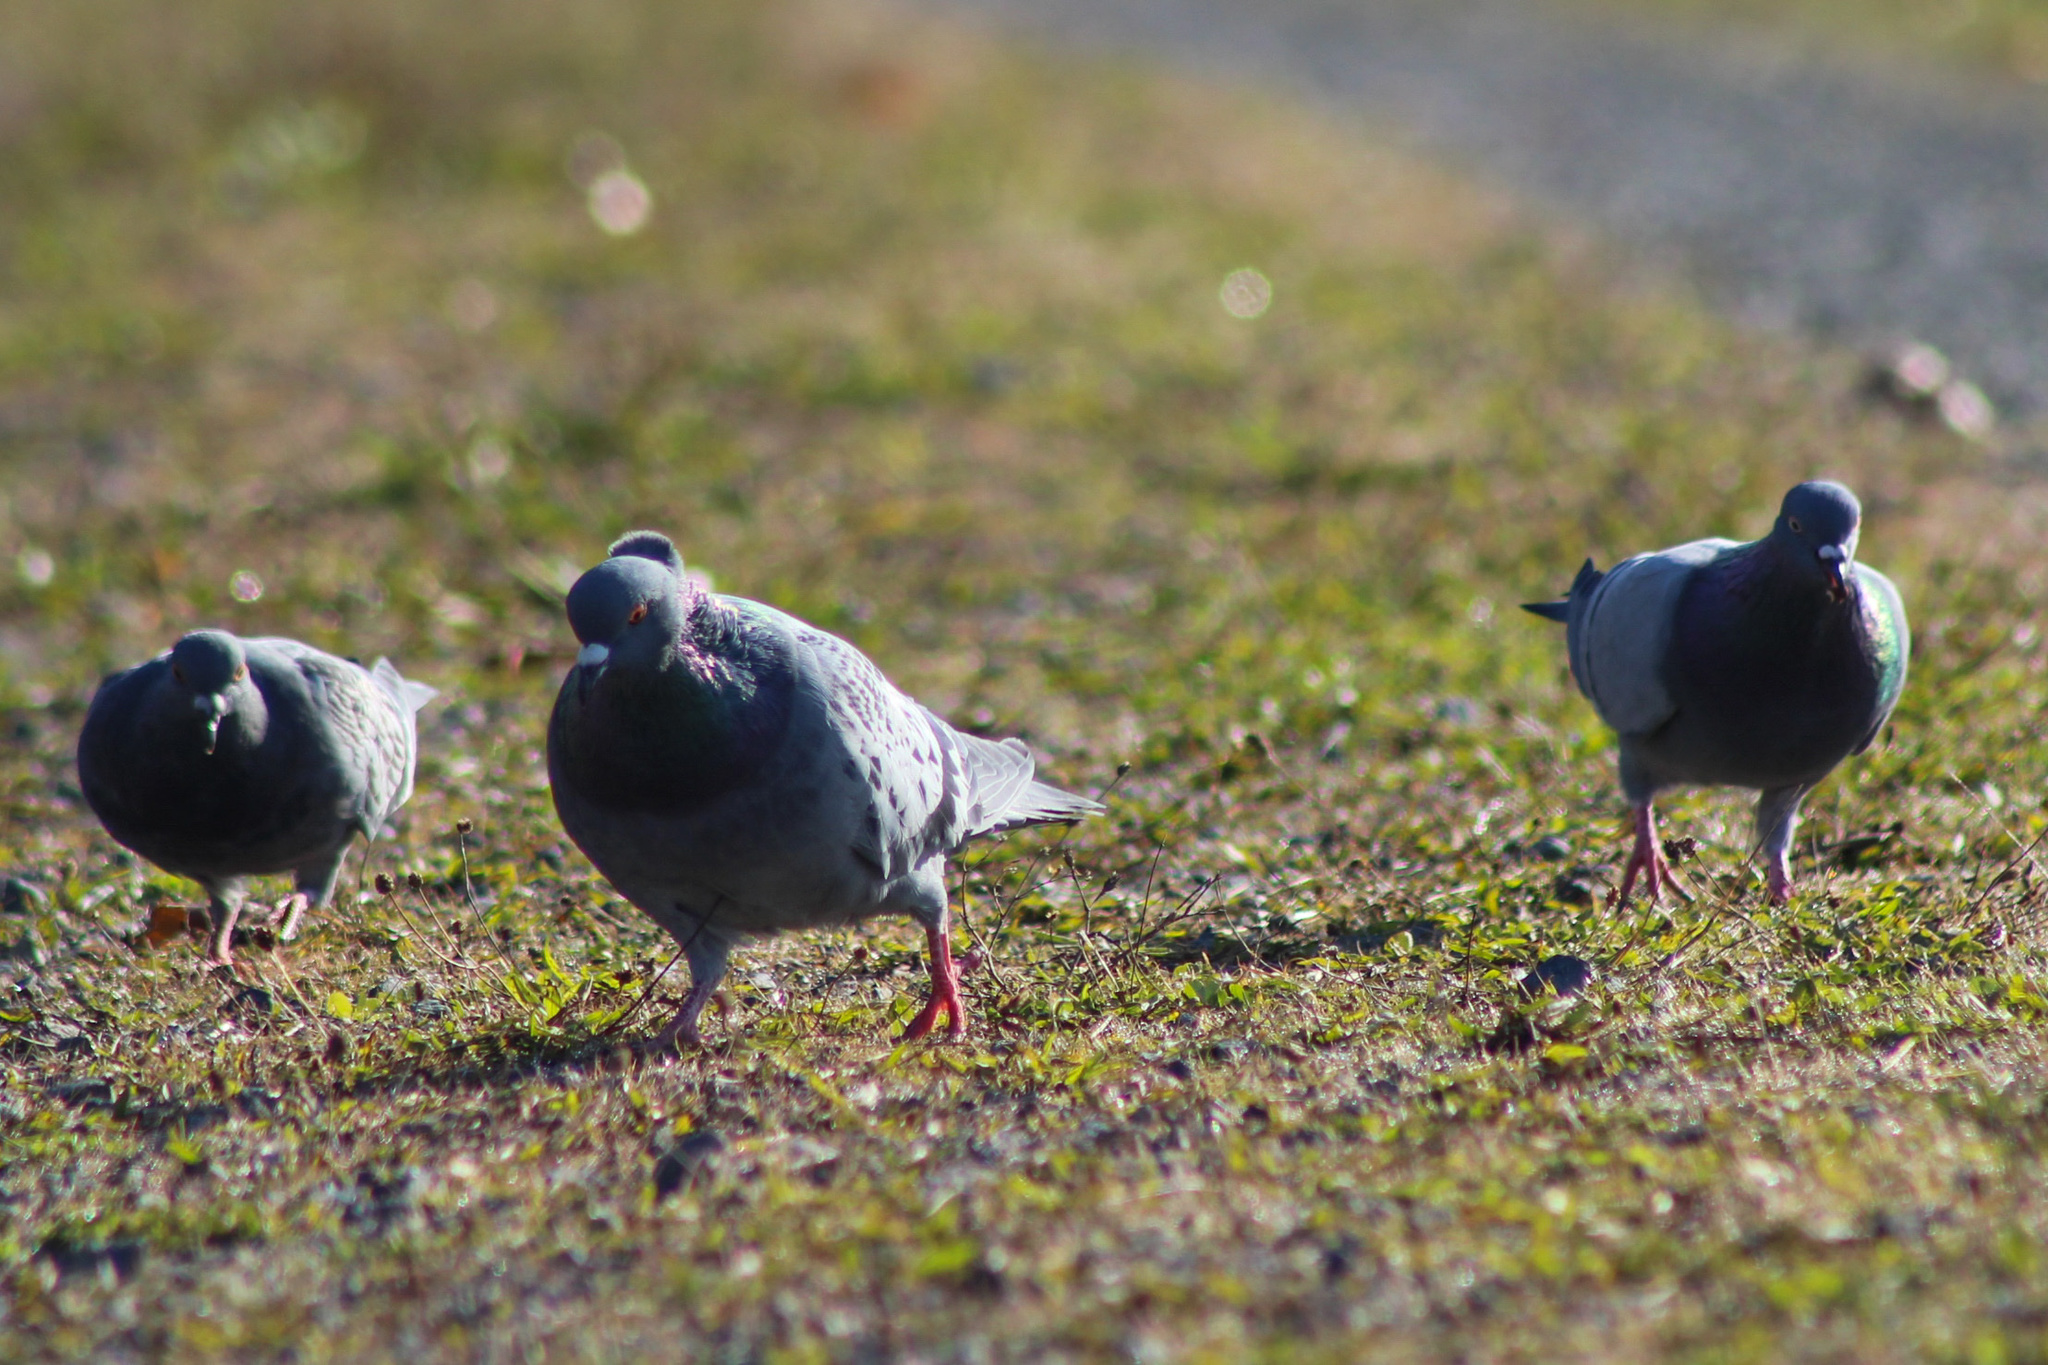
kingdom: Animalia
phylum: Chordata
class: Aves
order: Columbiformes
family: Columbidae
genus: Columba
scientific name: Columba livia
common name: Rock pigeon
